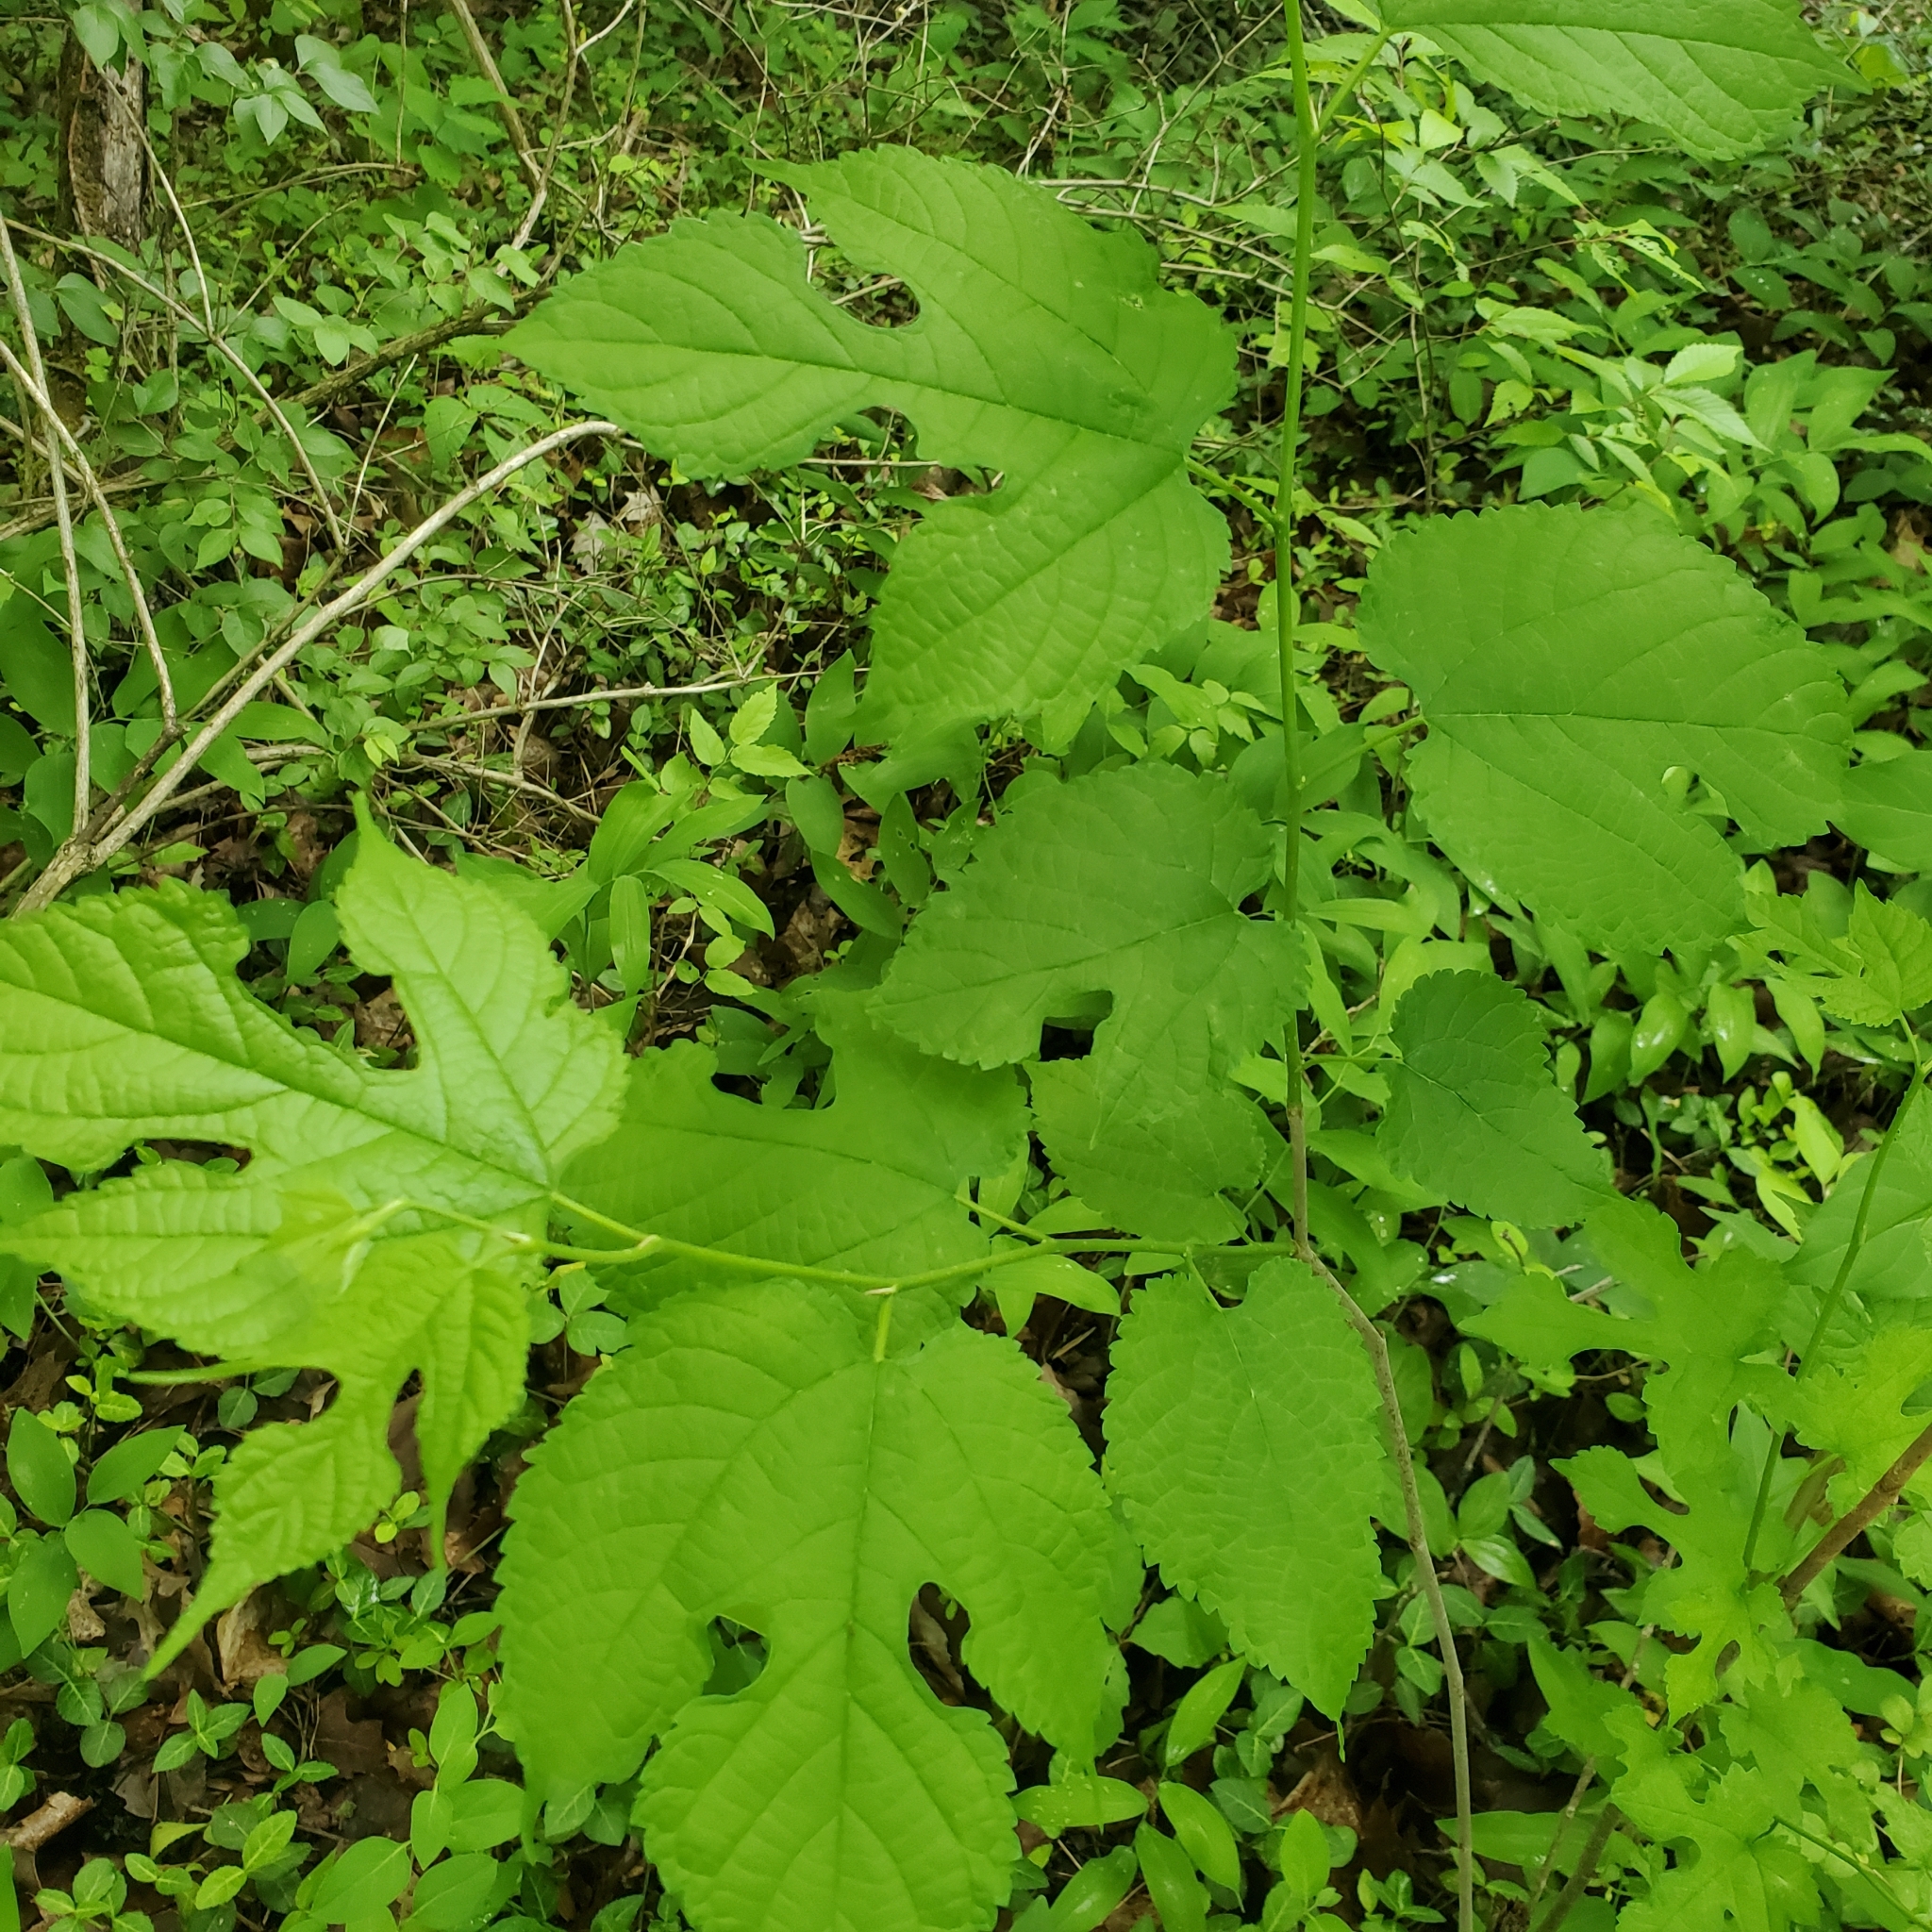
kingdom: Plantae
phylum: Tracheophyta
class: Magnoliopsida
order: Rosales
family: Moraceae
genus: Morus
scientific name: Morus rubra
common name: Red mulberry
